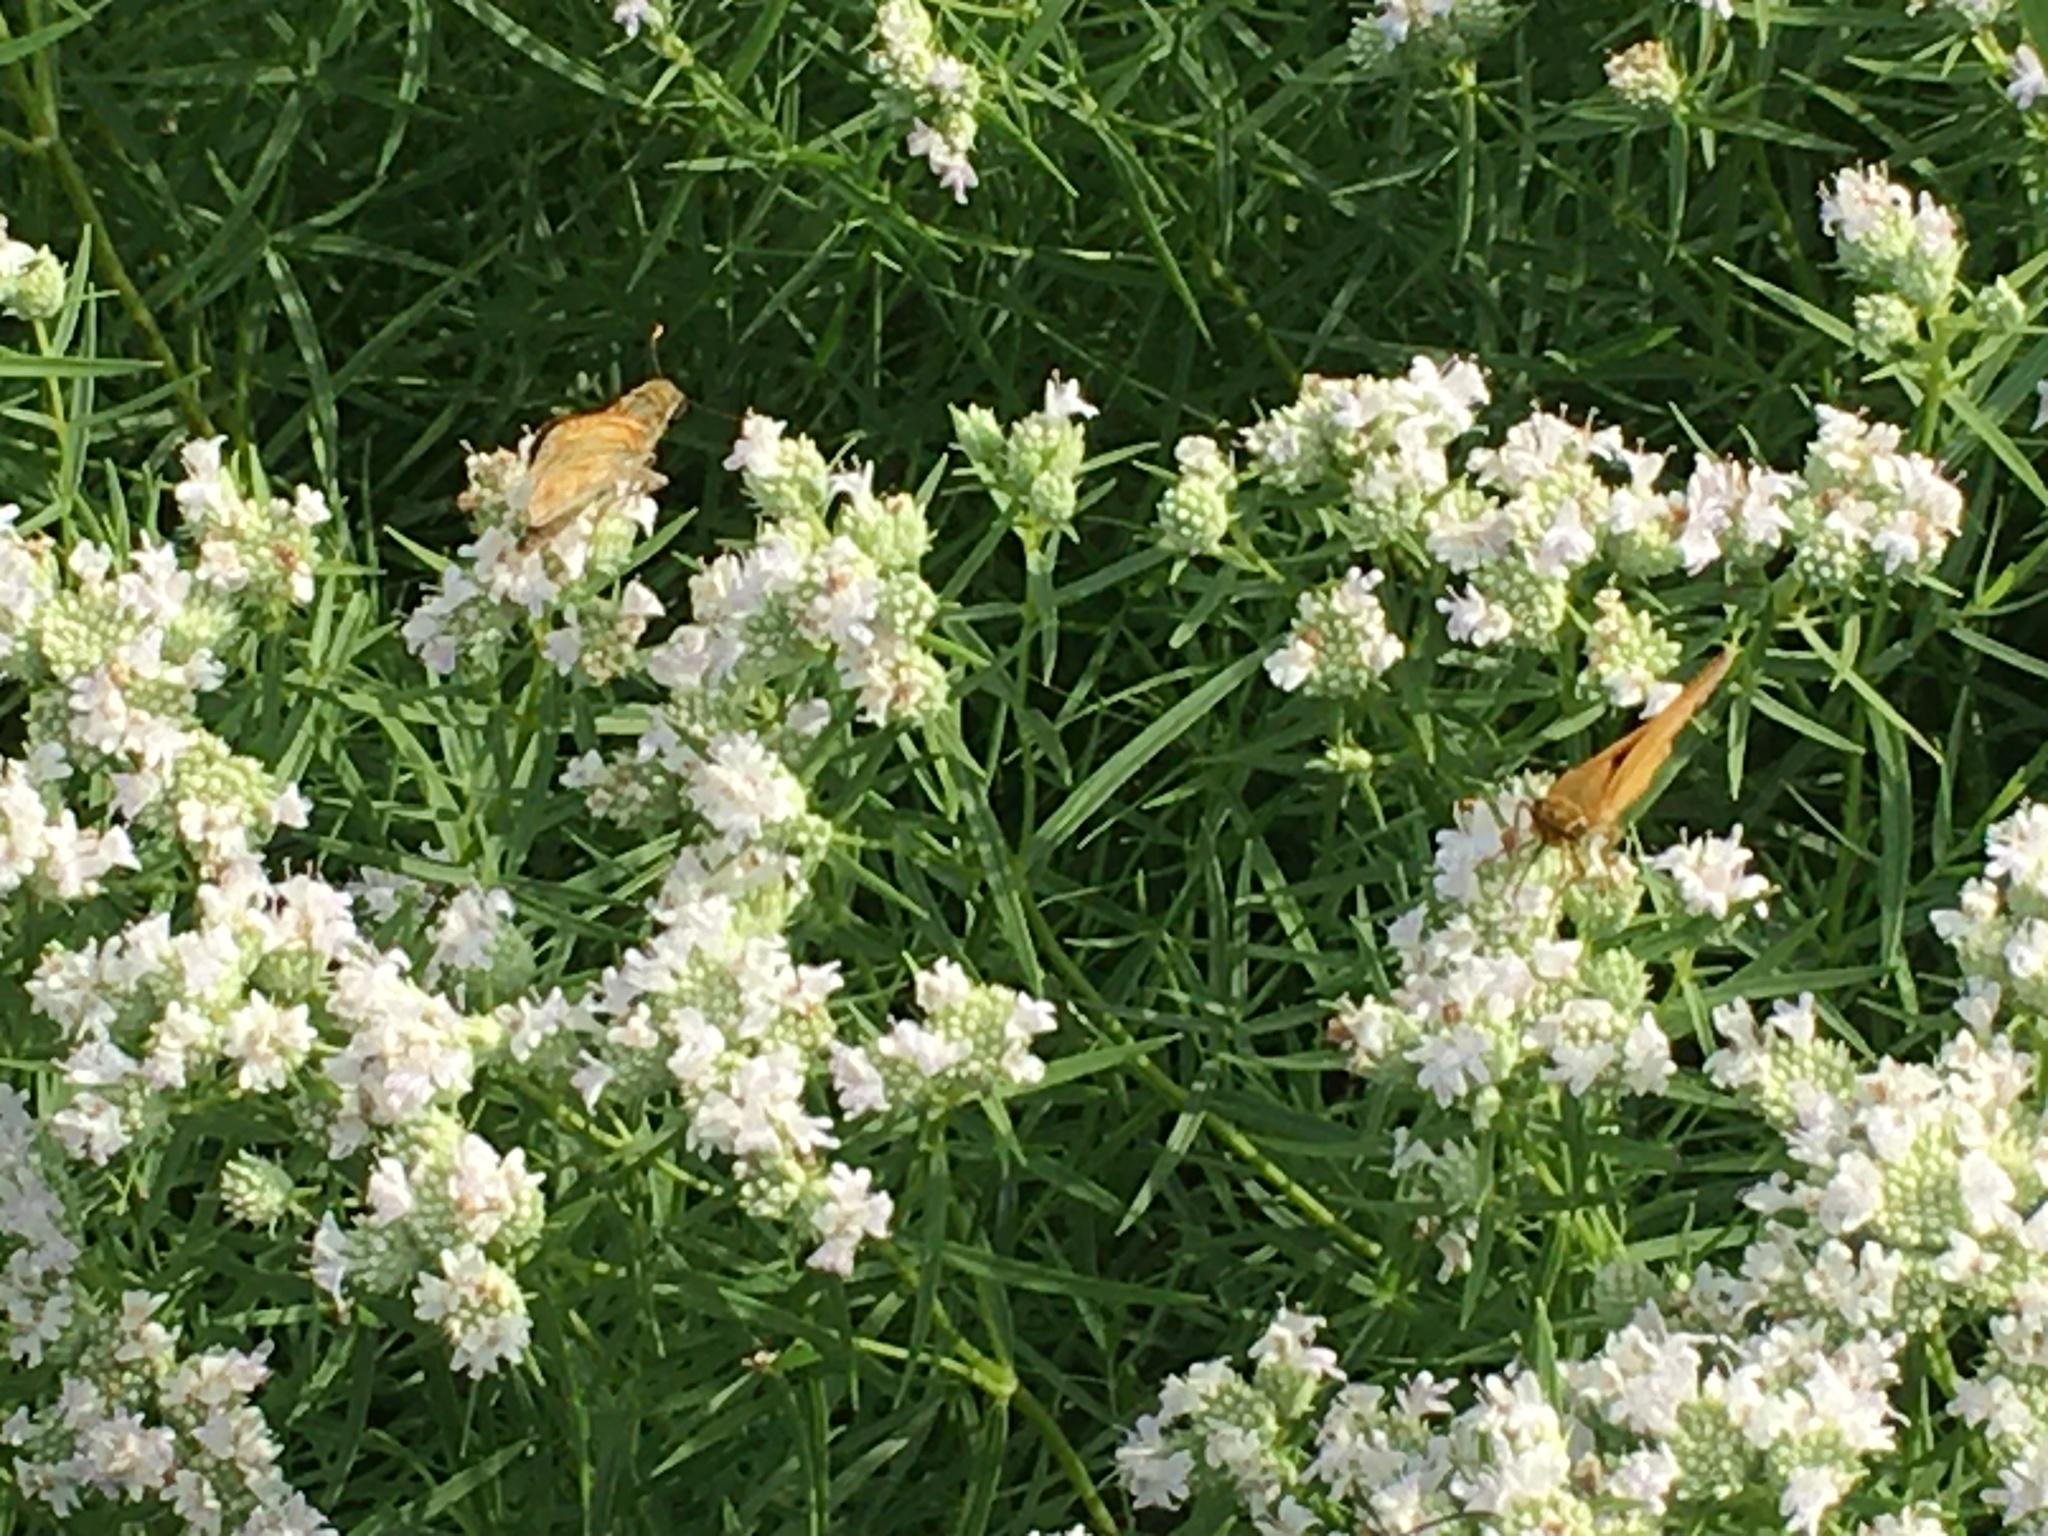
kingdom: Animalia
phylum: Arthropoda
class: Insecta
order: Lepidoptera
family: Hesperiidae
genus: Atalopedes
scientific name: Atalopedes
